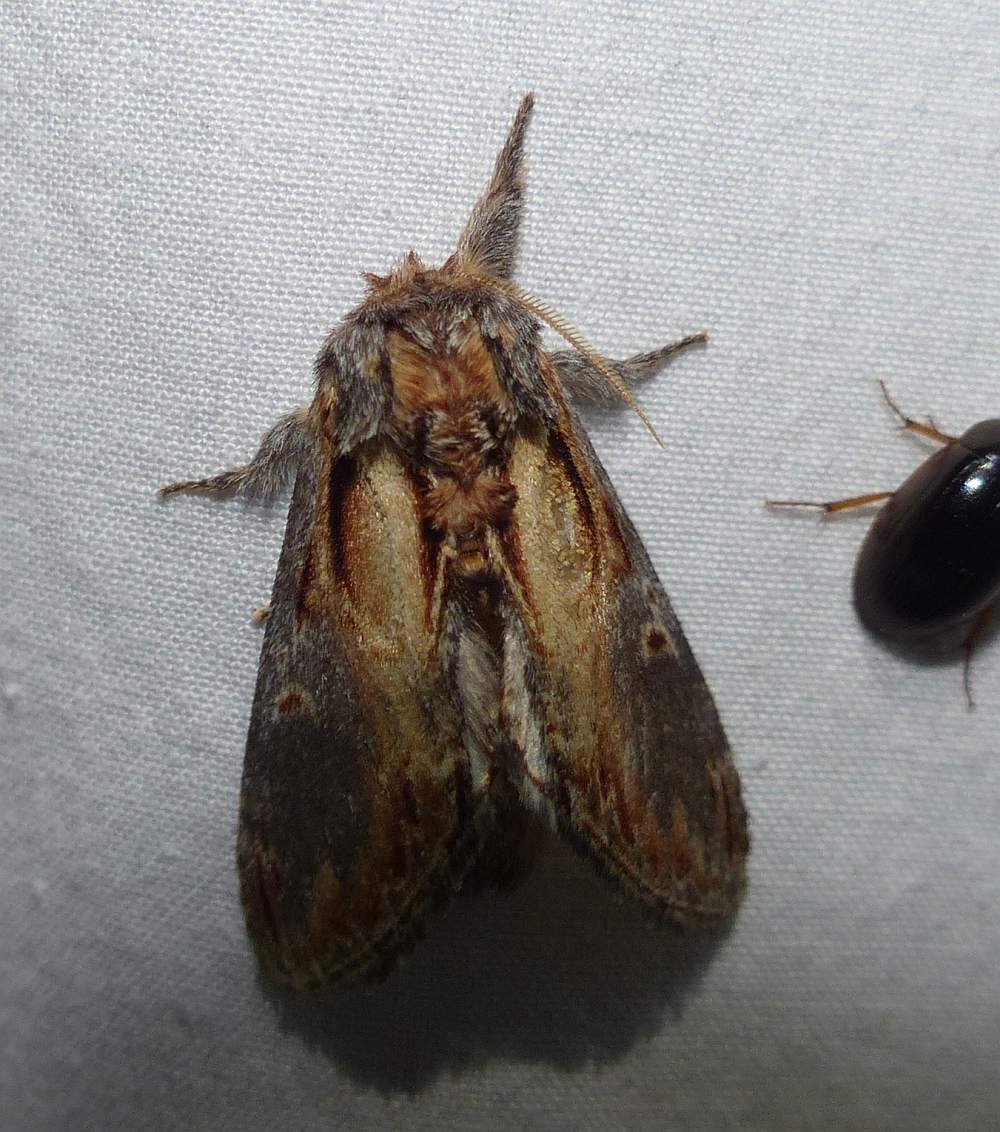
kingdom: Animalia
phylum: Arthropoda
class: Insecta
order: Lepidoptera
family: Notodontidae
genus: Notodonta
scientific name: Notodonta scitipennis
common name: Finned-willow prominent moth
